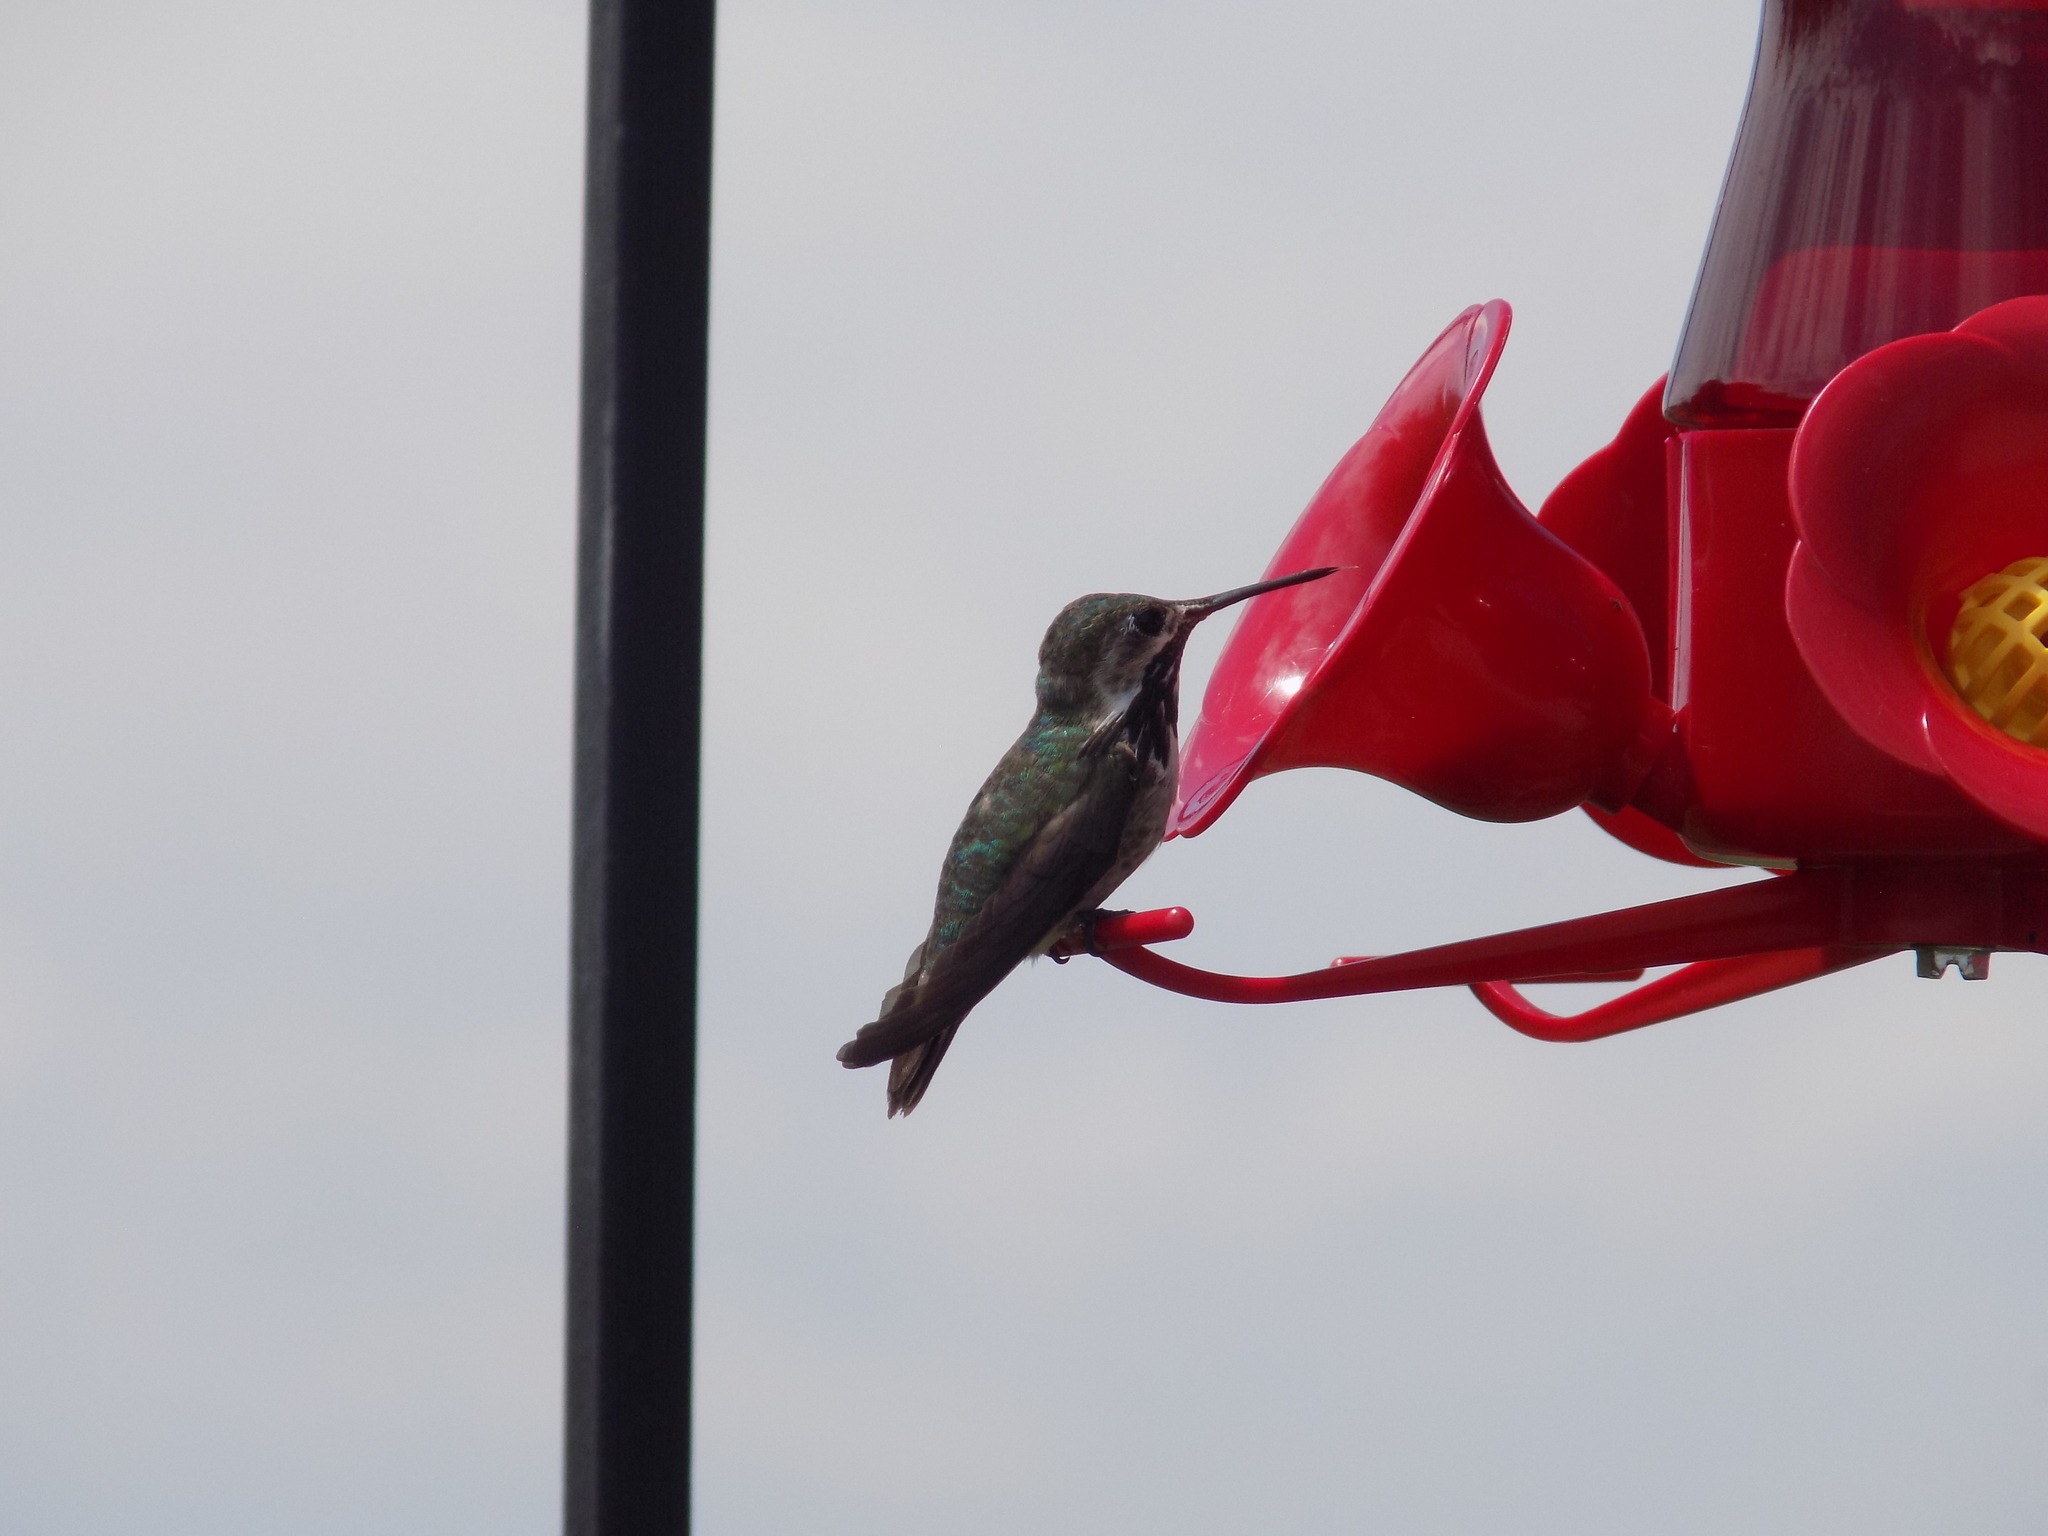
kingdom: Animalia
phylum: Chordata
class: Aves
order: Apodiformes
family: Trochilidae
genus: Selasphorus
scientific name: Selasphorus calliope
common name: Calliope hummingbird
